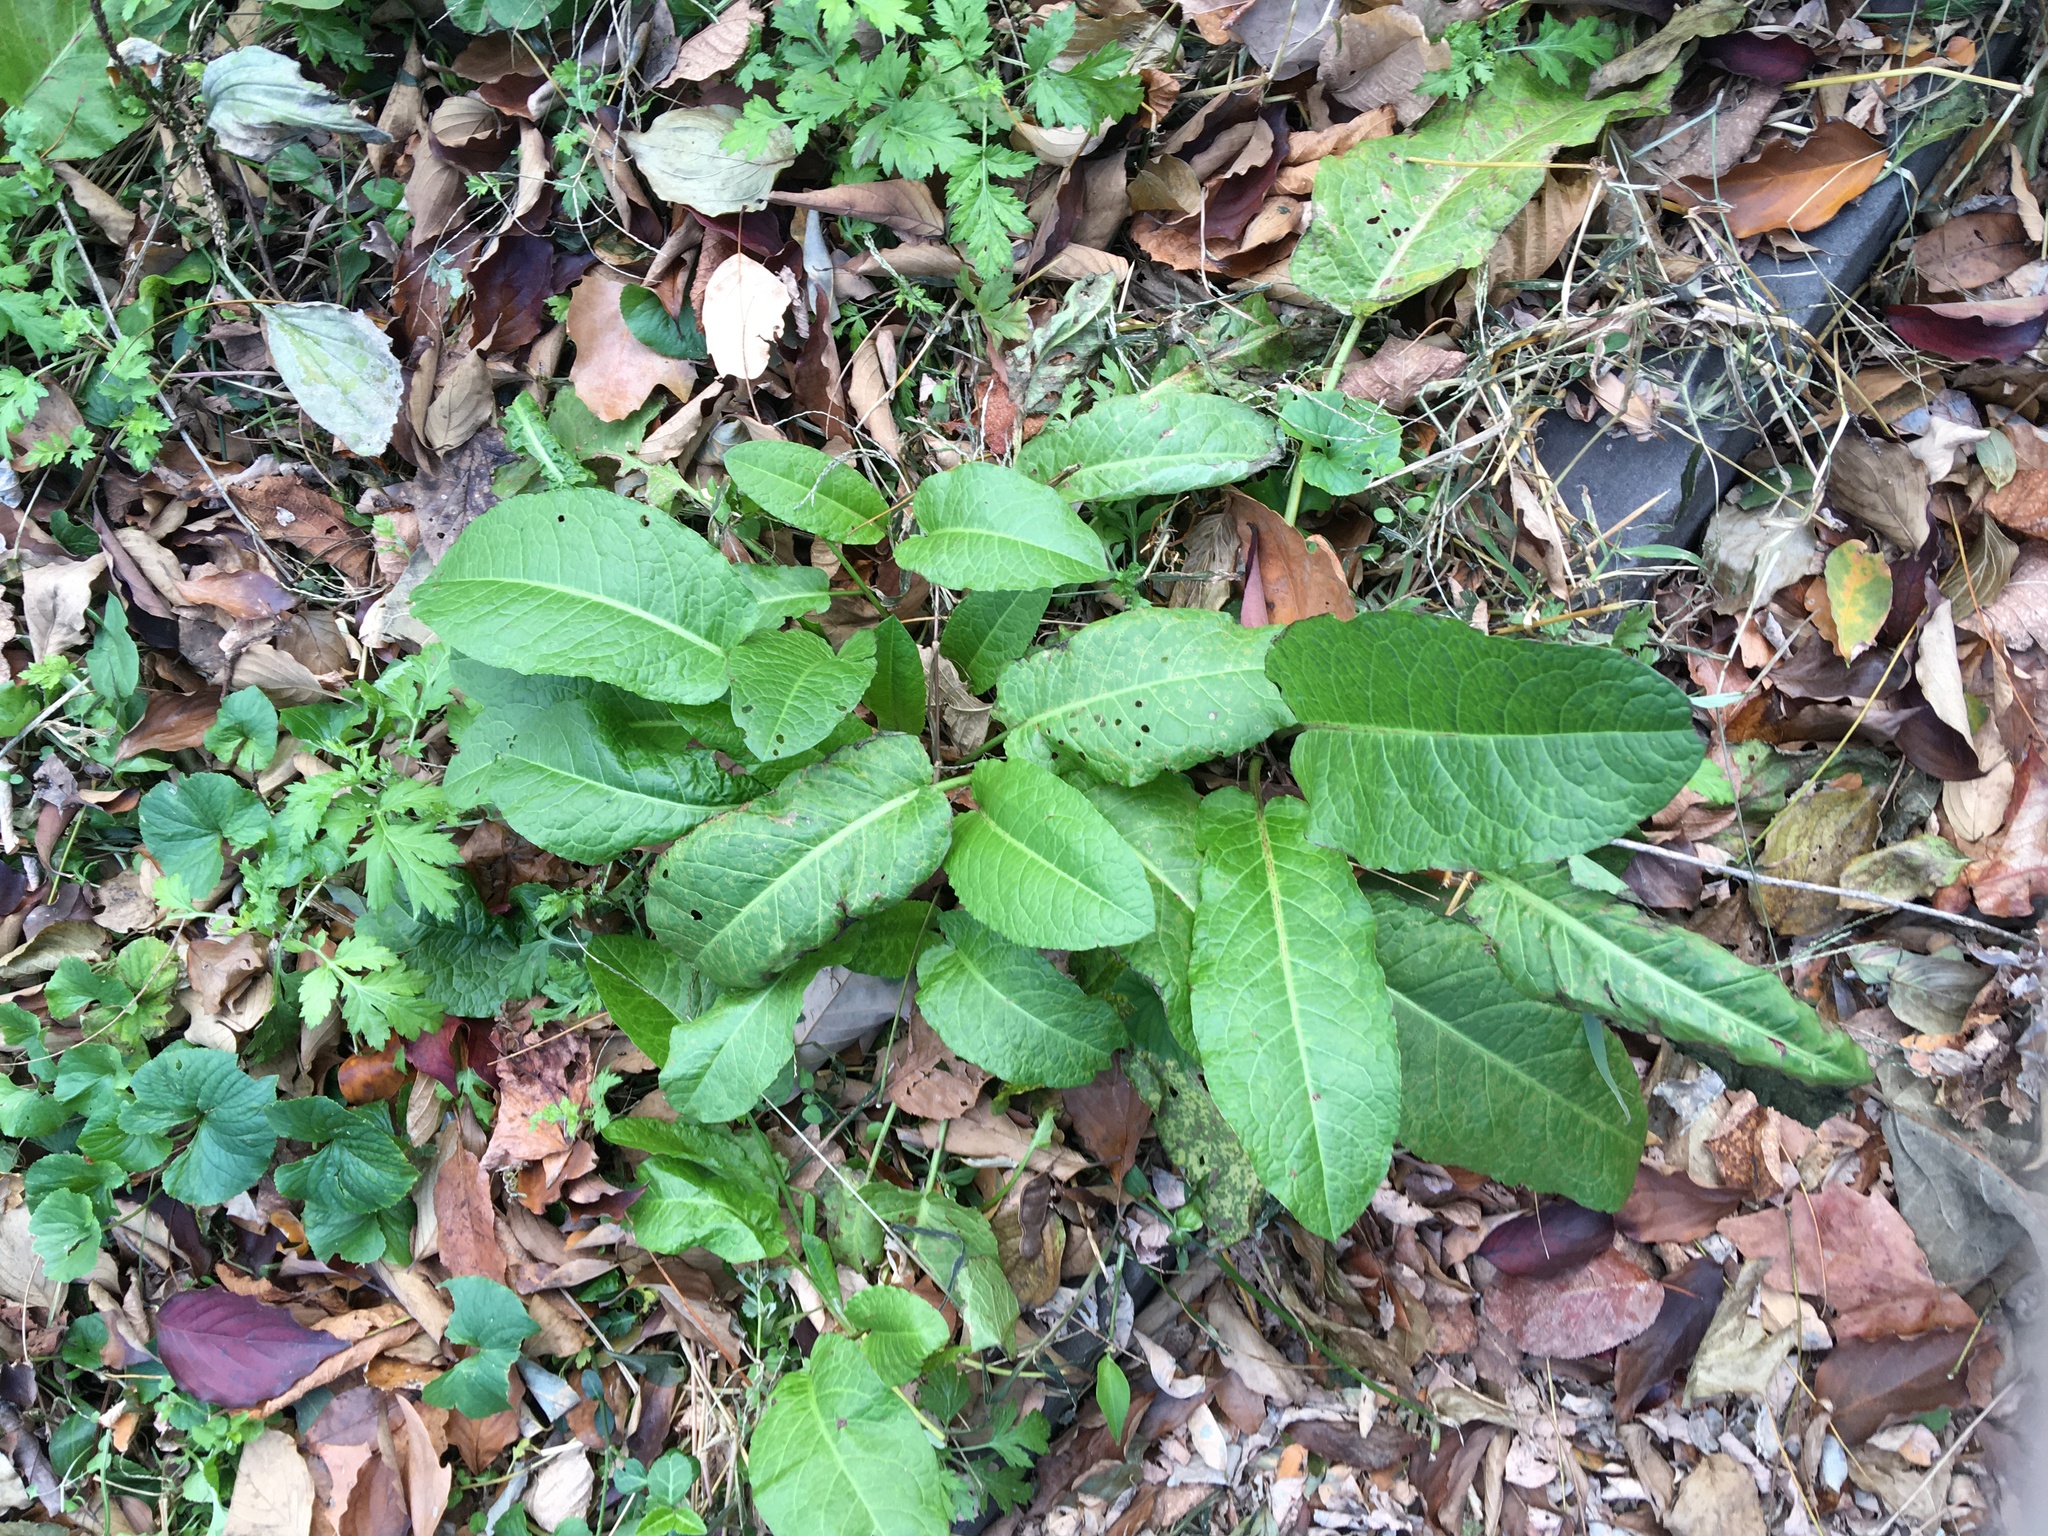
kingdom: Plantae
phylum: Tracheophyta
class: Magnoliopsida
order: Caryophyllales
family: Polygonaceae
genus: Rumex
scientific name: Rumex obtusifolius
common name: Bitter dock
